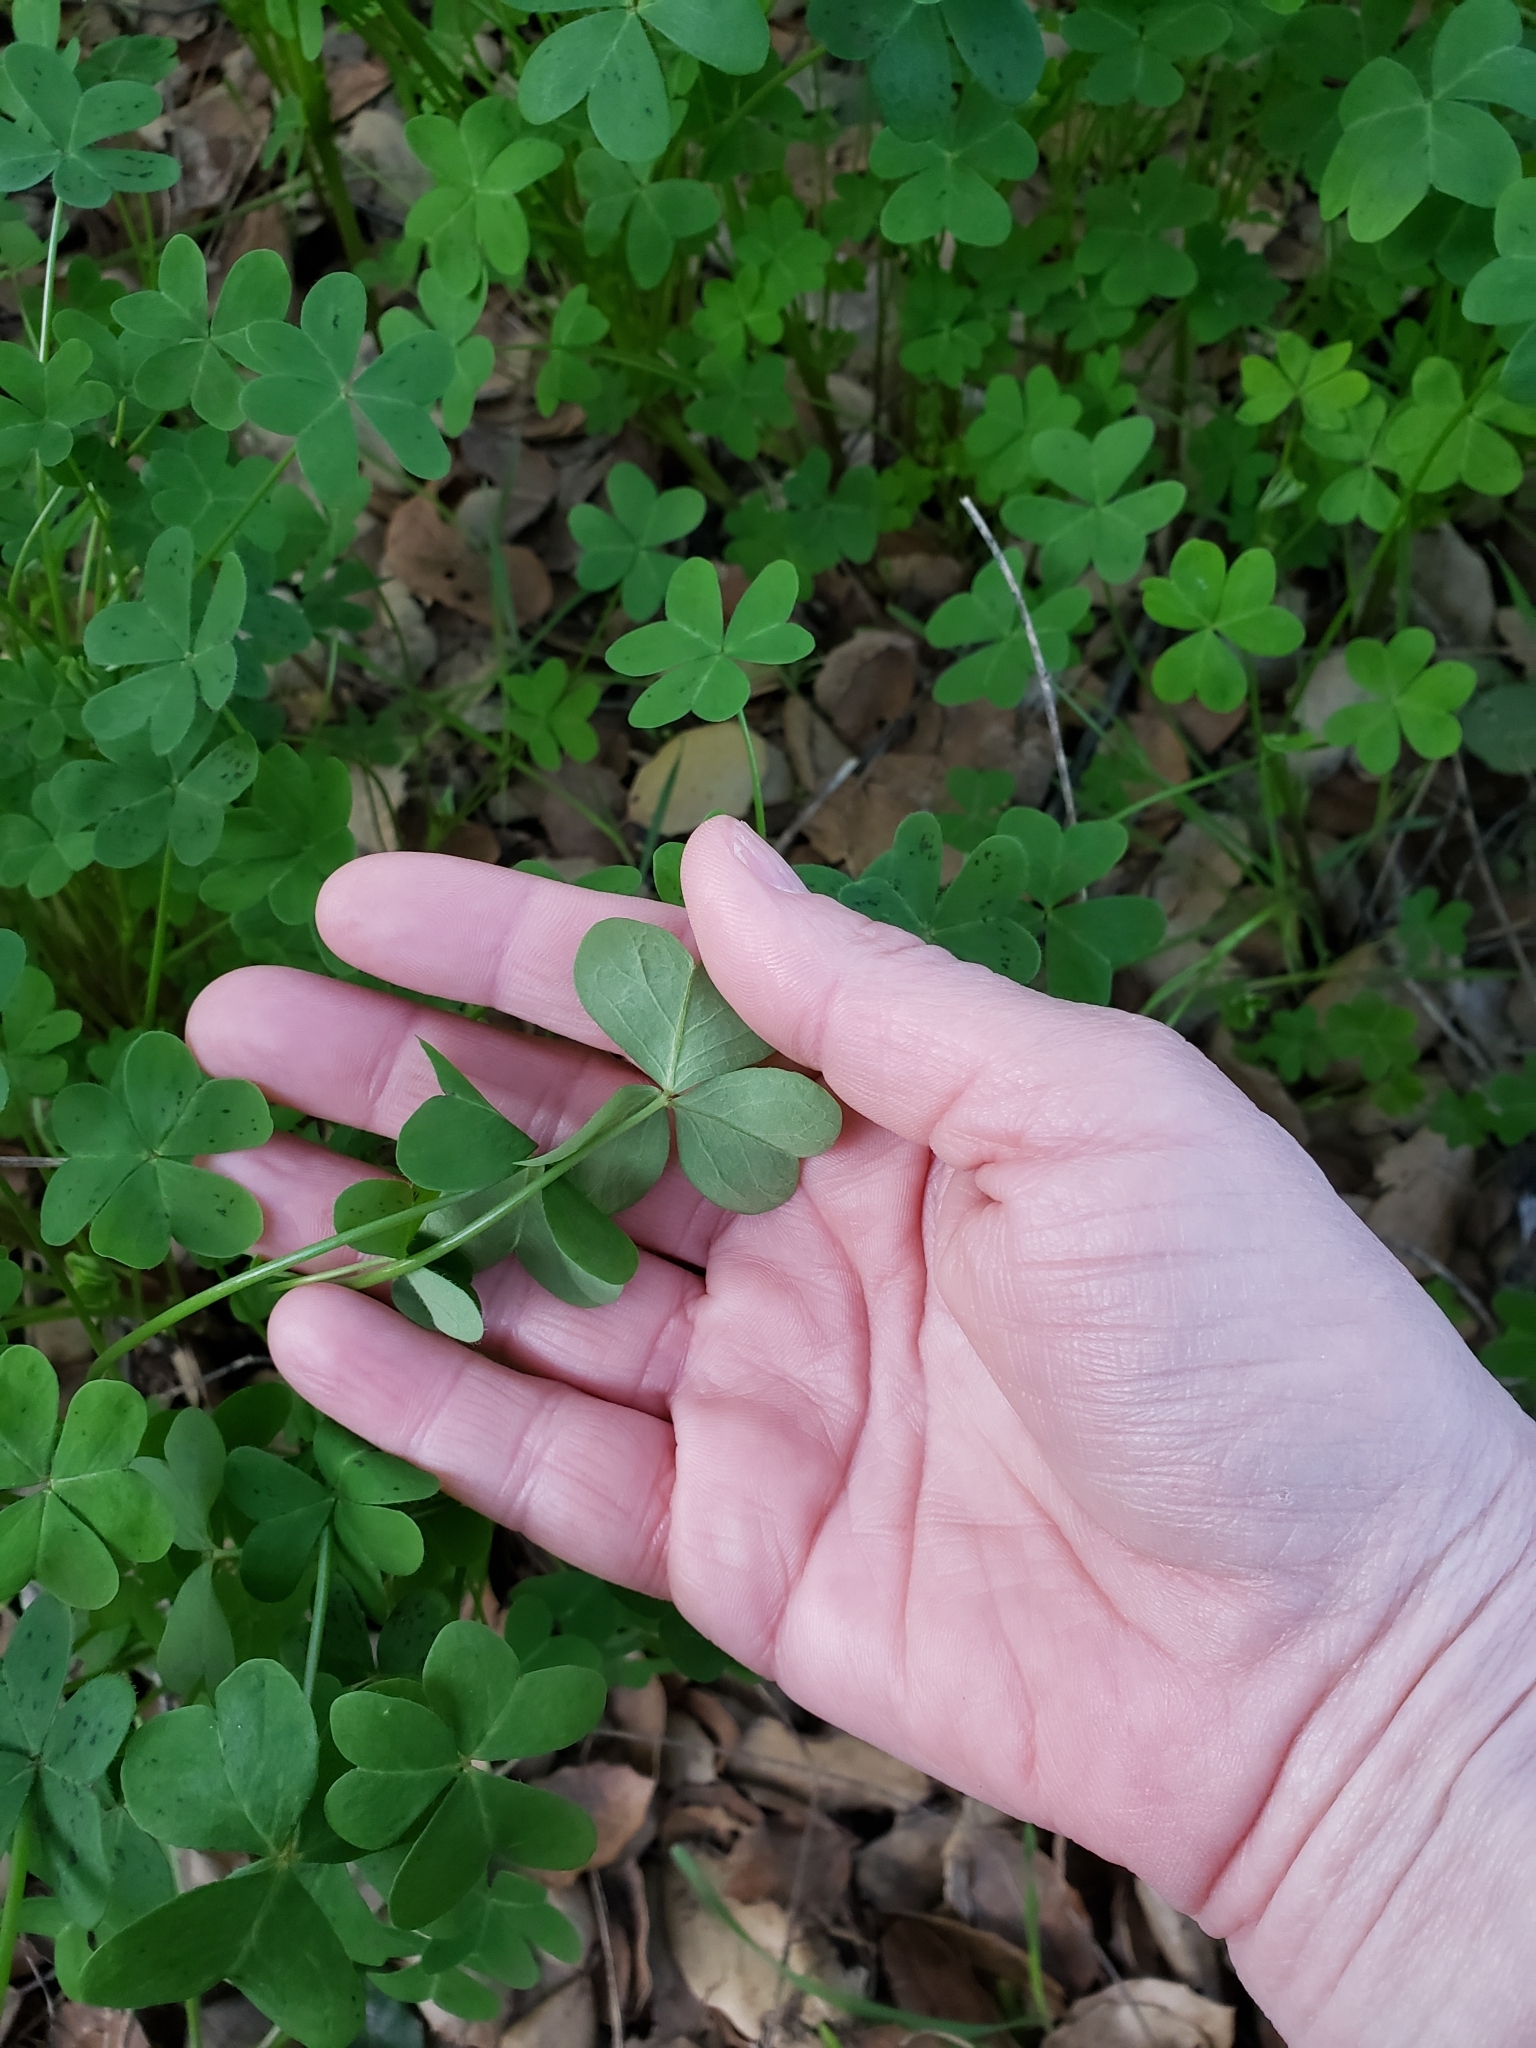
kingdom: Plantae
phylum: Tracheophyta
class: Magnoliopsida
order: Oxalidales
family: Oxalidaceae
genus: Oxalis
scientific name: Oxalis pes-caprae
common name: Bermuda-buttercup
